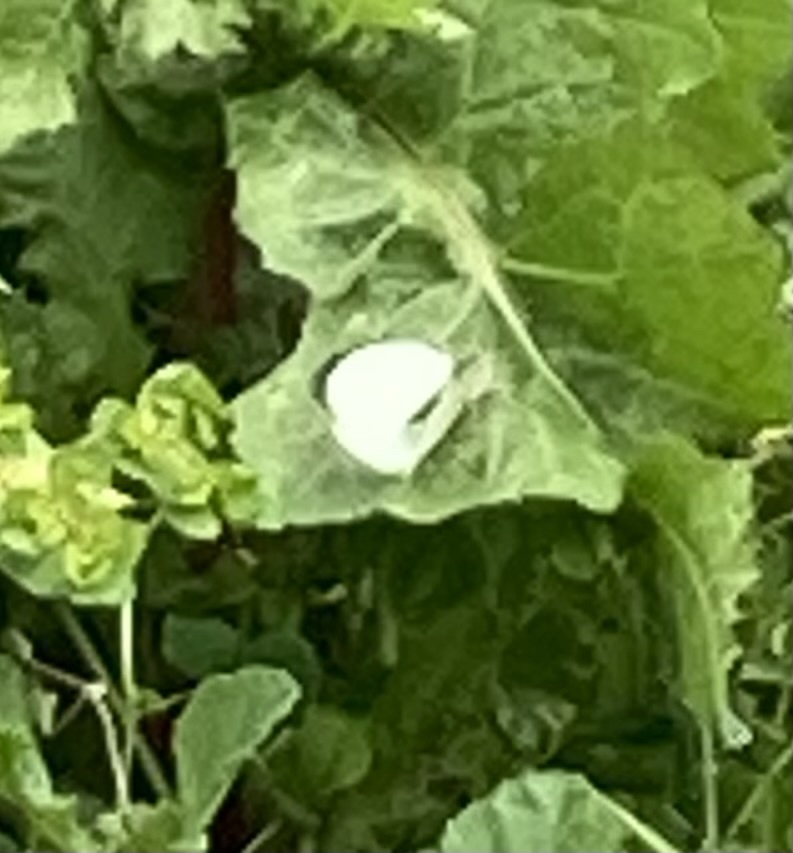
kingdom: Animalia
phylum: Arthropoda
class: Insecta
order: Lepidoptera
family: Pieridae
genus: Pieris
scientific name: Pieris brassicae
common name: Large white
